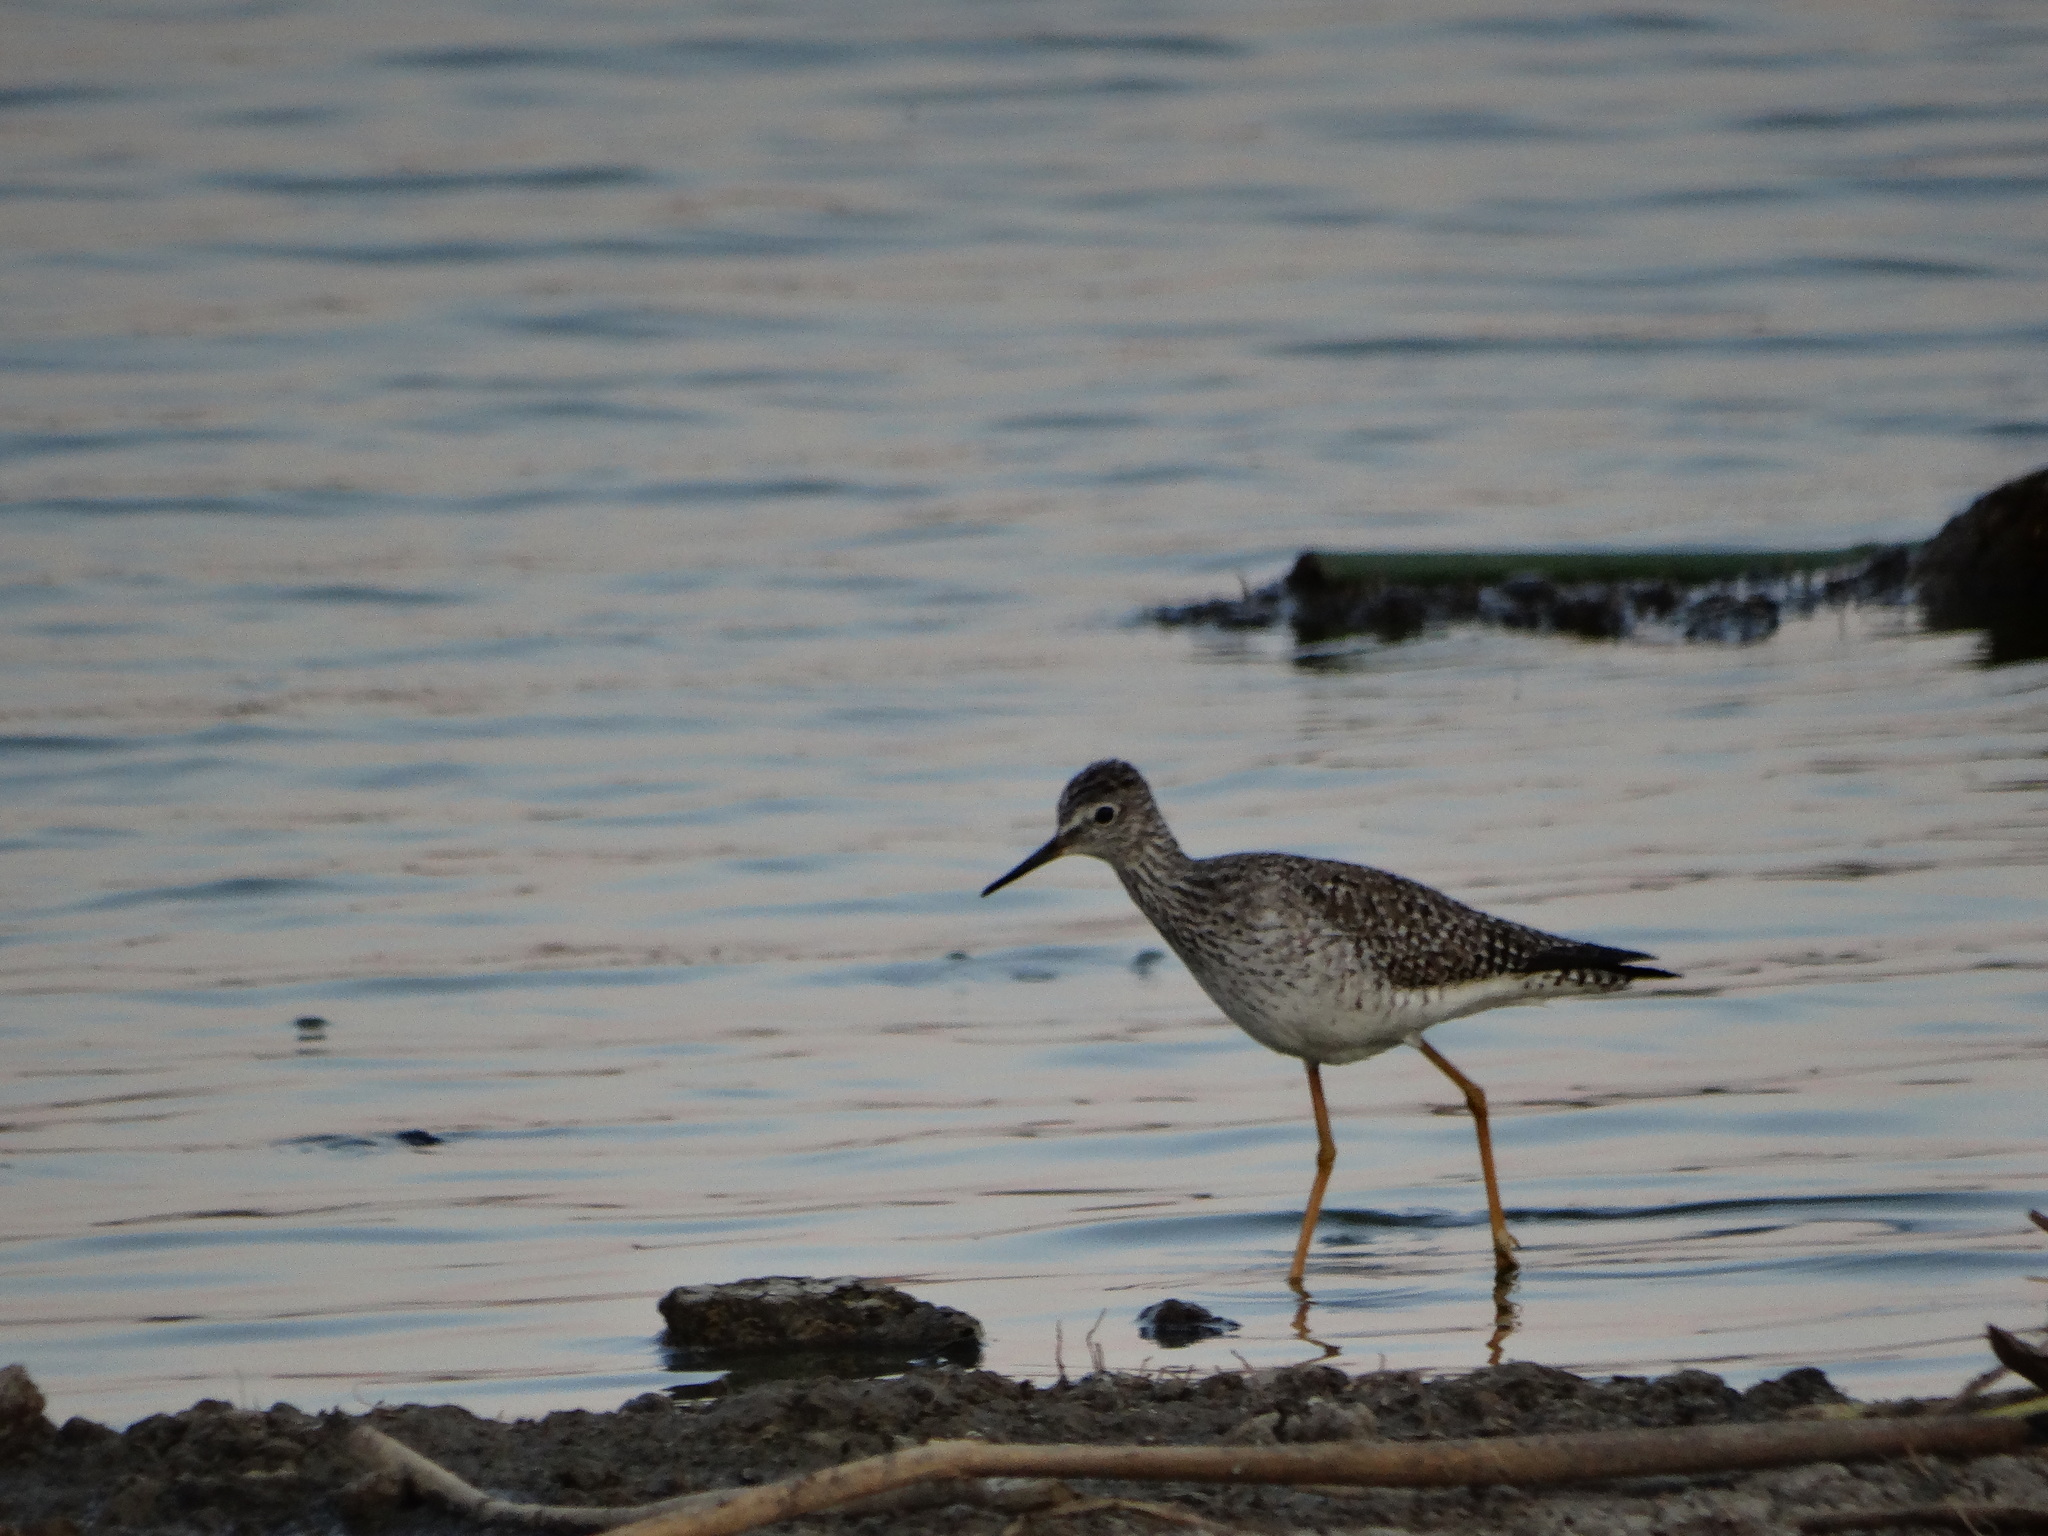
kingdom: Animalia
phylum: Chordata
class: Aves
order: Charadriiformes
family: Scolopacidae
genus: Tringa
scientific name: Tringa flavipes
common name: Lesser yellowlegs
